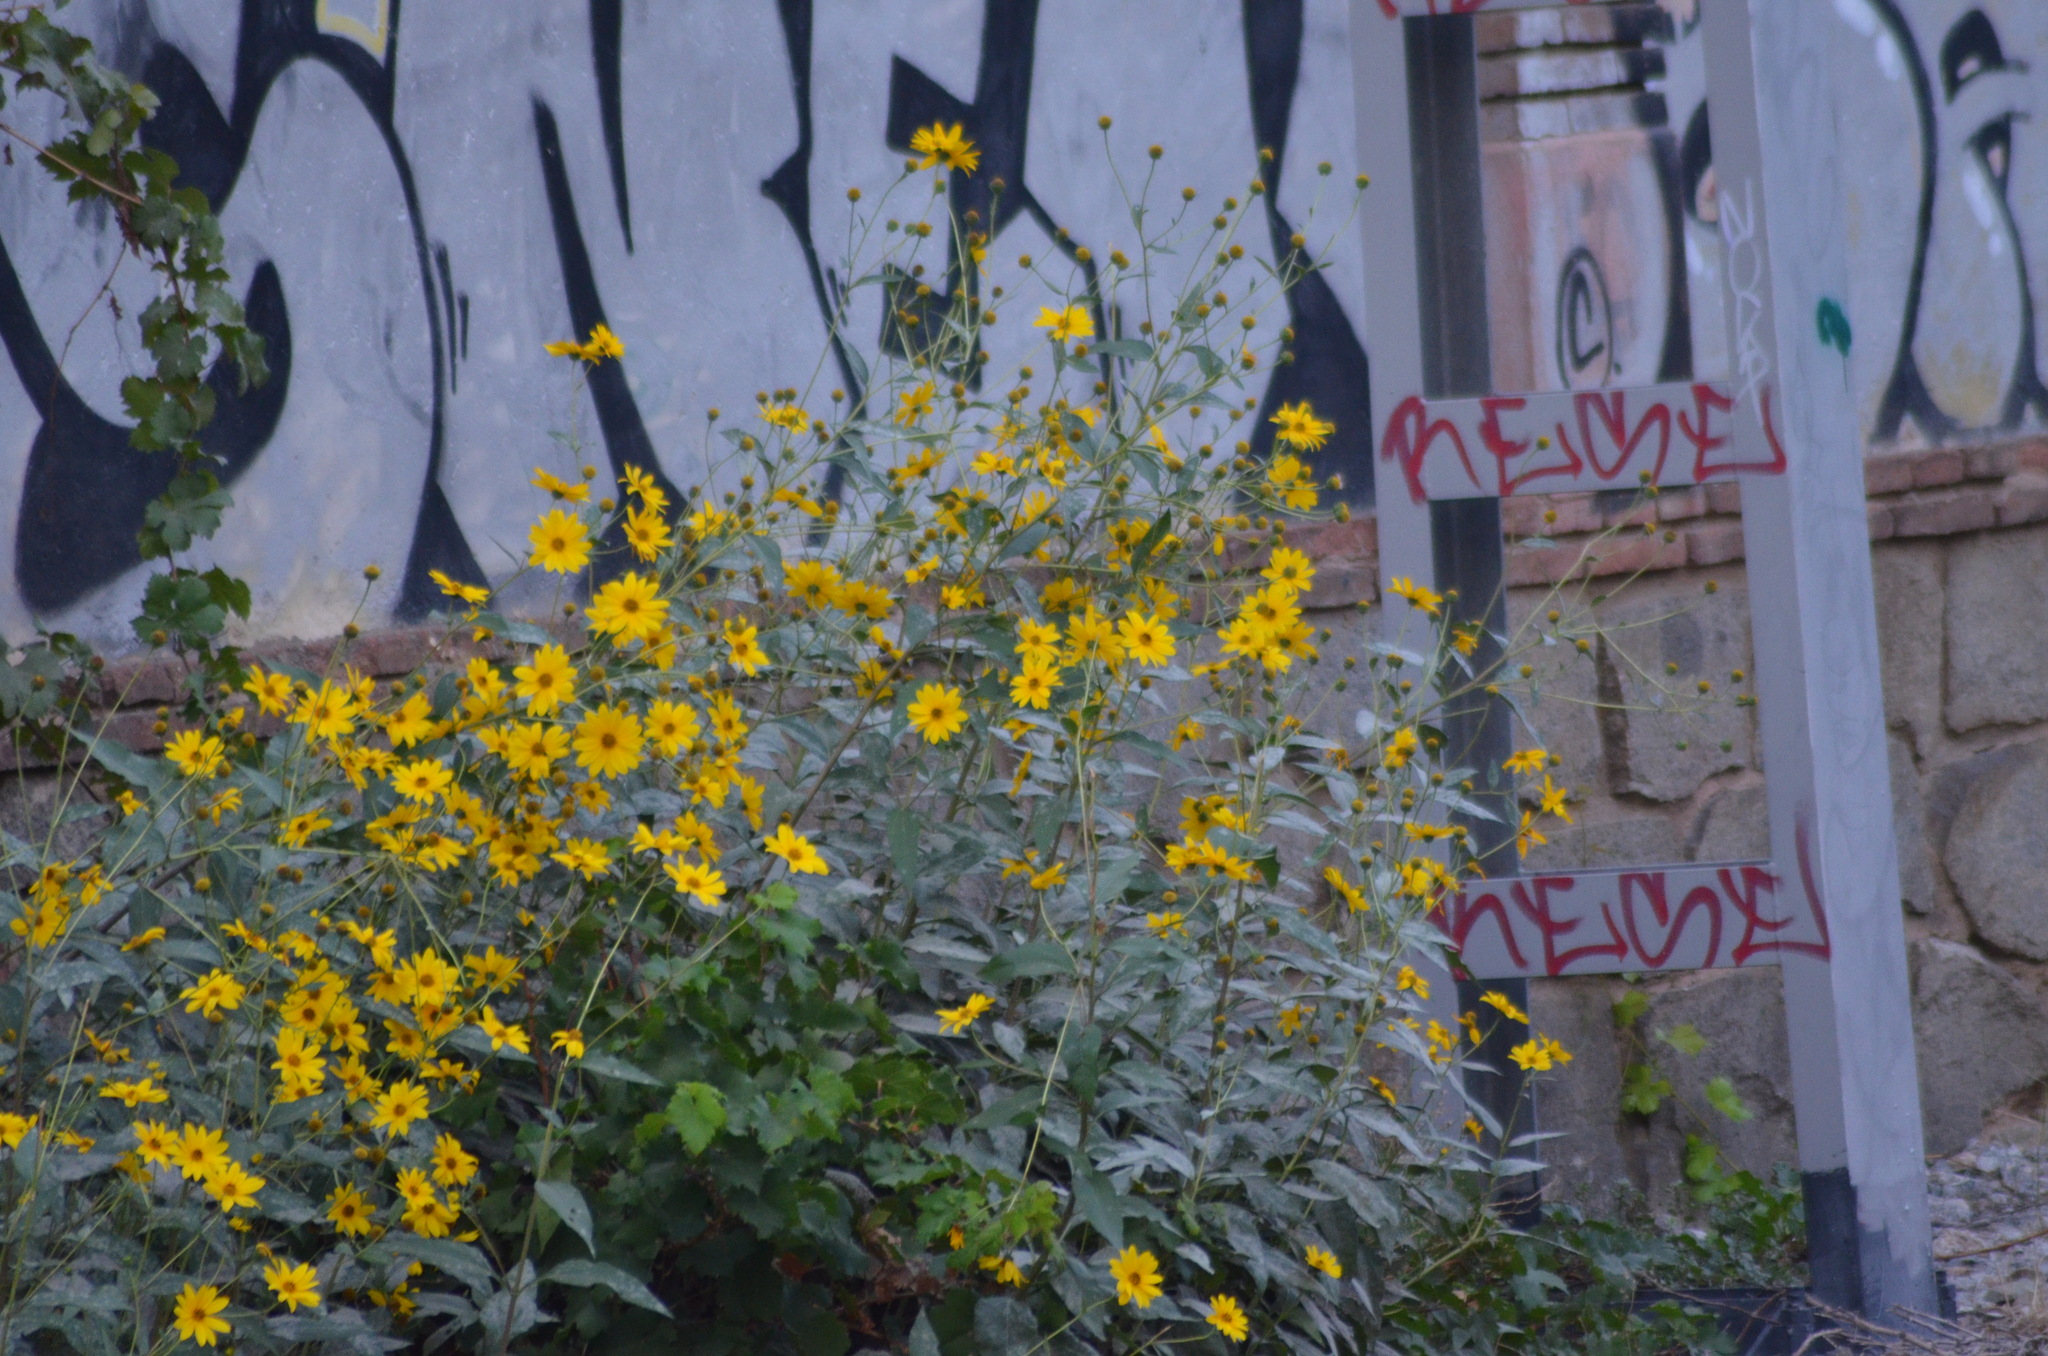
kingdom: Plantae
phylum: Tracheophyta
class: Magnoliopsida
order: Asterales
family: Asteraceae
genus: Helianthus
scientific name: Helianthus tuberosus
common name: Jerusalem artichoke
